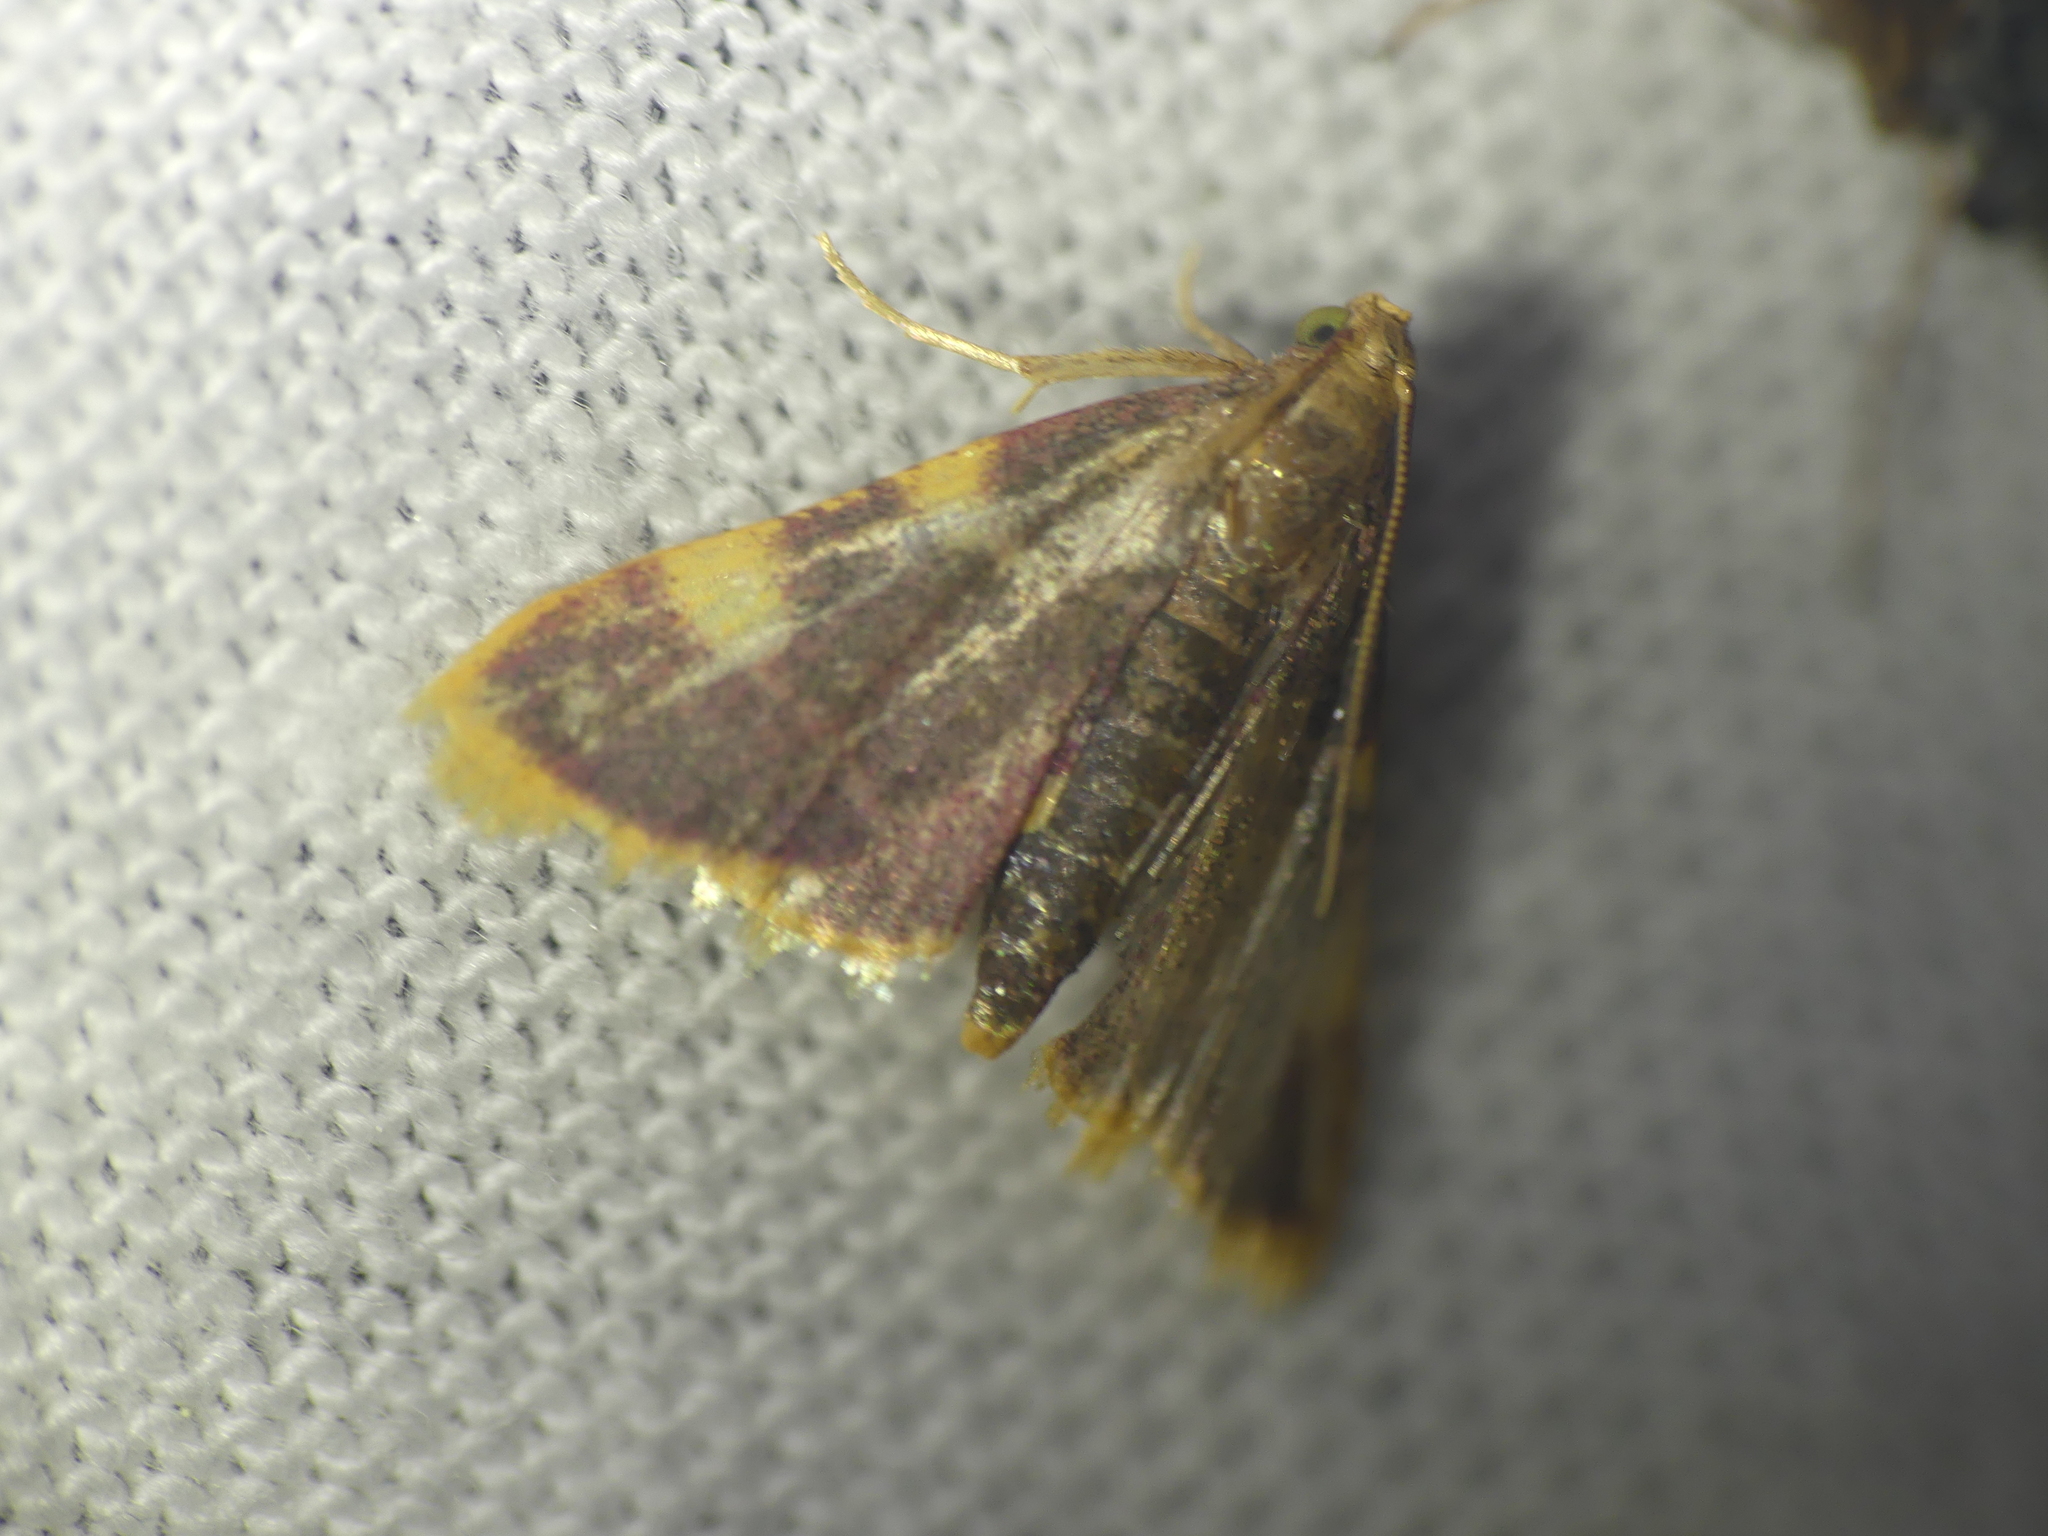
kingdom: Animalia
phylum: Arthropoda
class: Insecta
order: Lepidoptera
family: Pyralidae
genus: Hypsopygia
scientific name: Hypsopygia costalis
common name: Gold triangle
